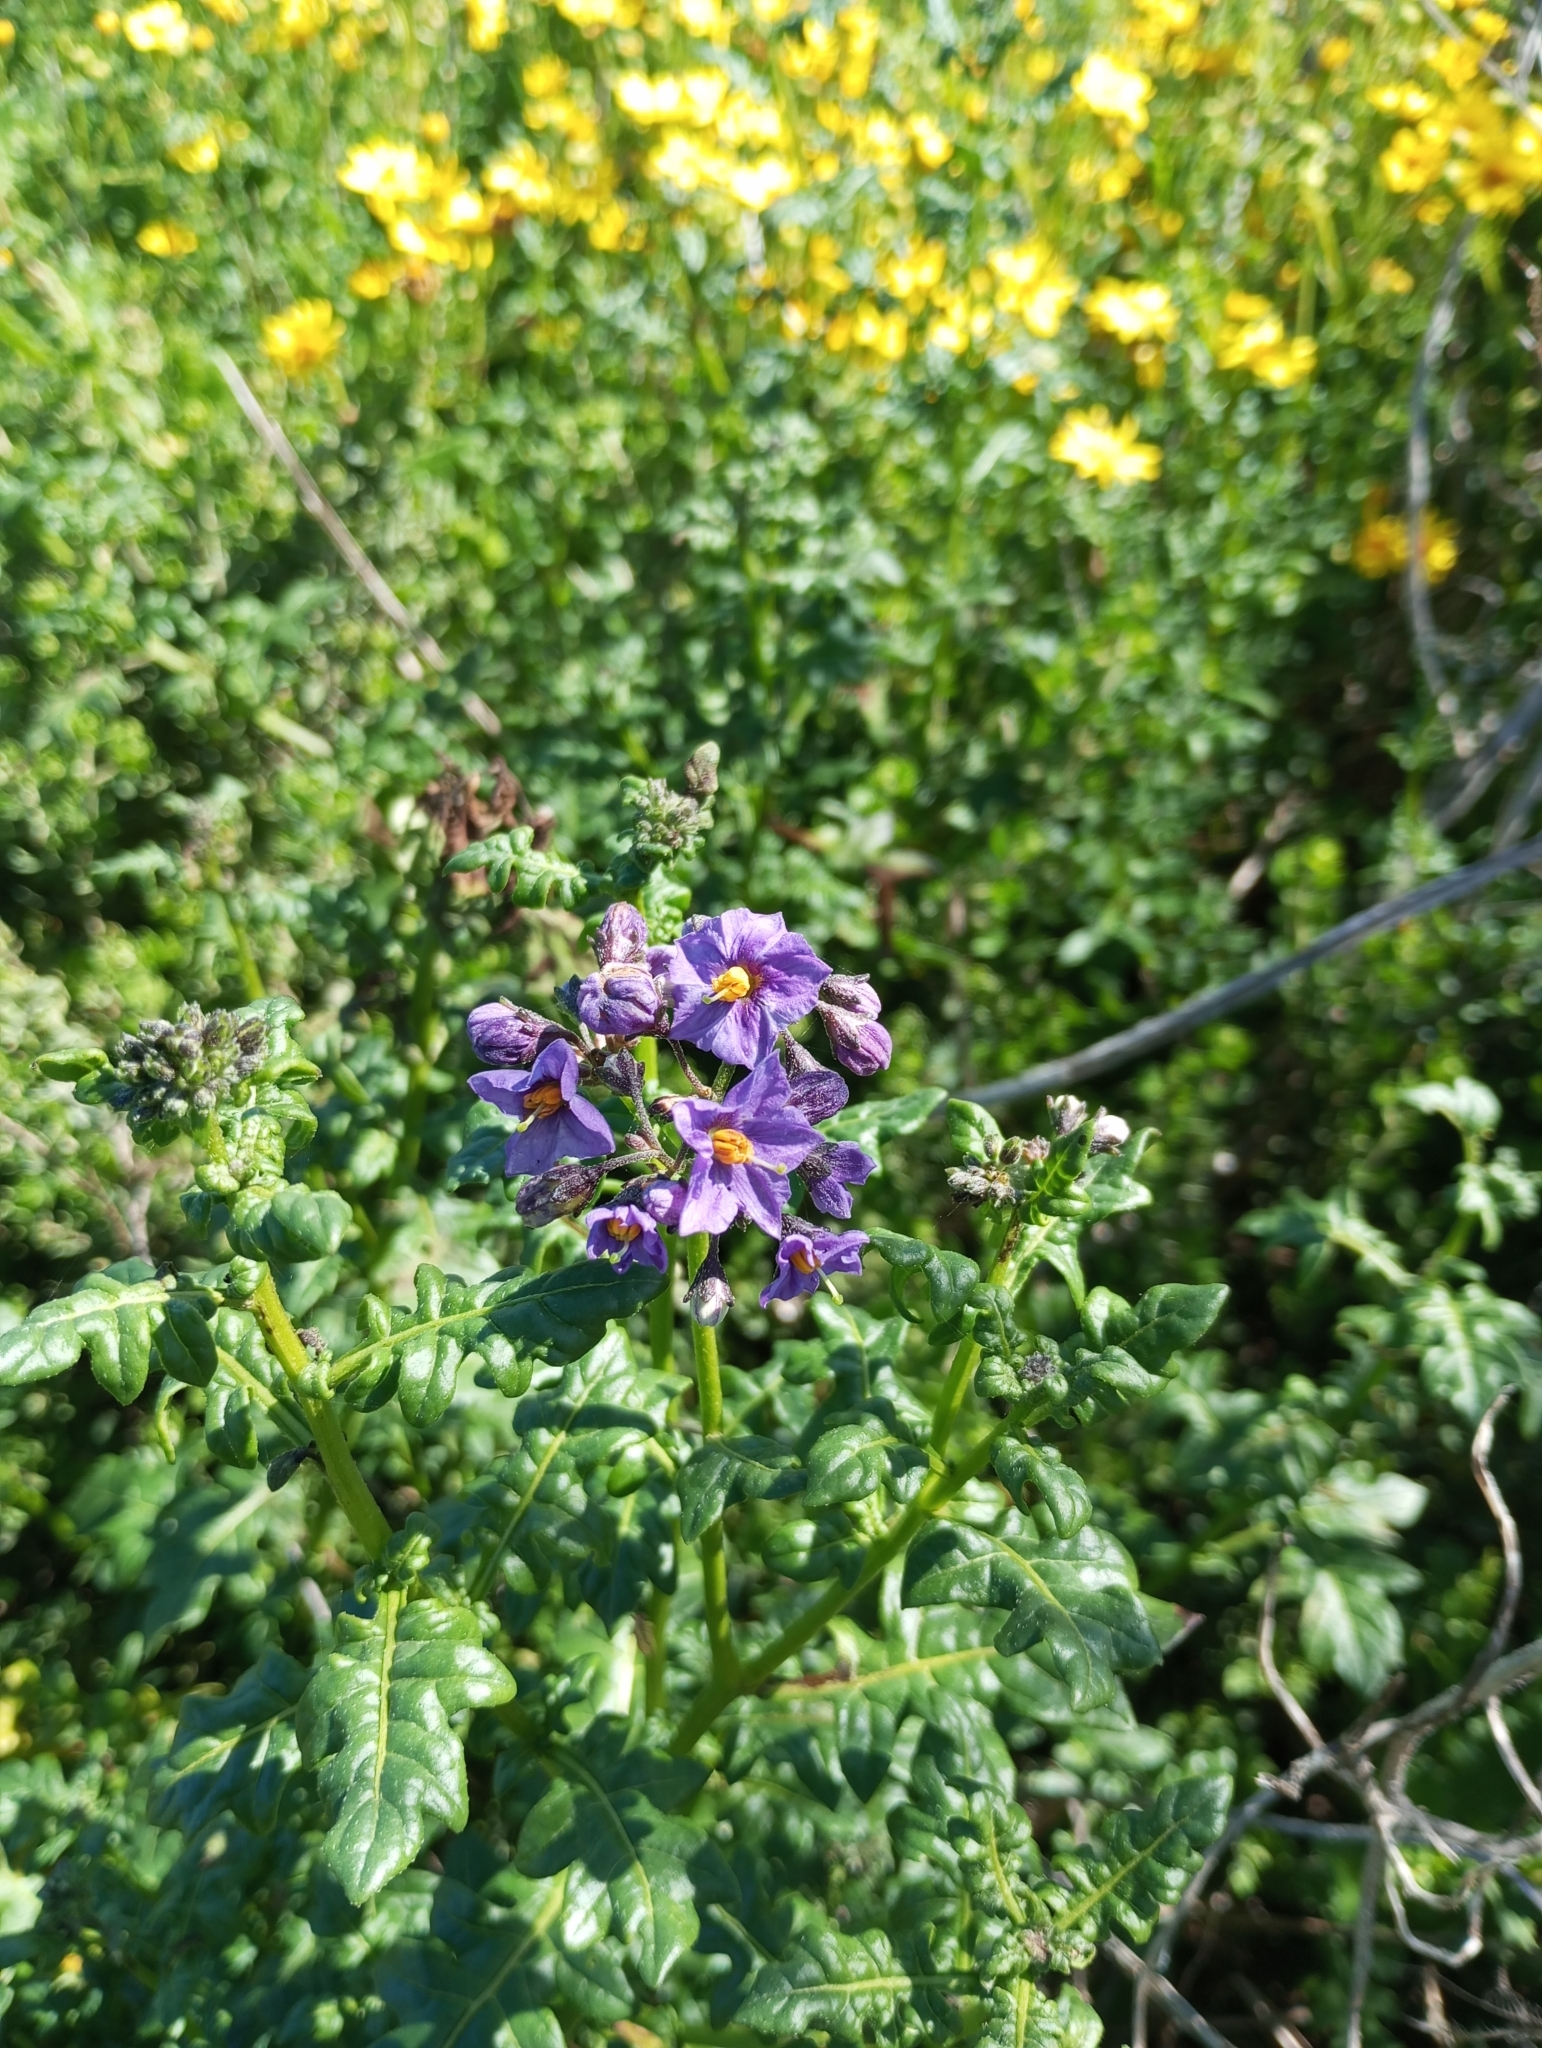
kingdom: Plantae
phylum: Tracheophyta
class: Magnoliopsida
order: Solanales
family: Solanaceae
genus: Solanum
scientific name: Solanum pinnatum
